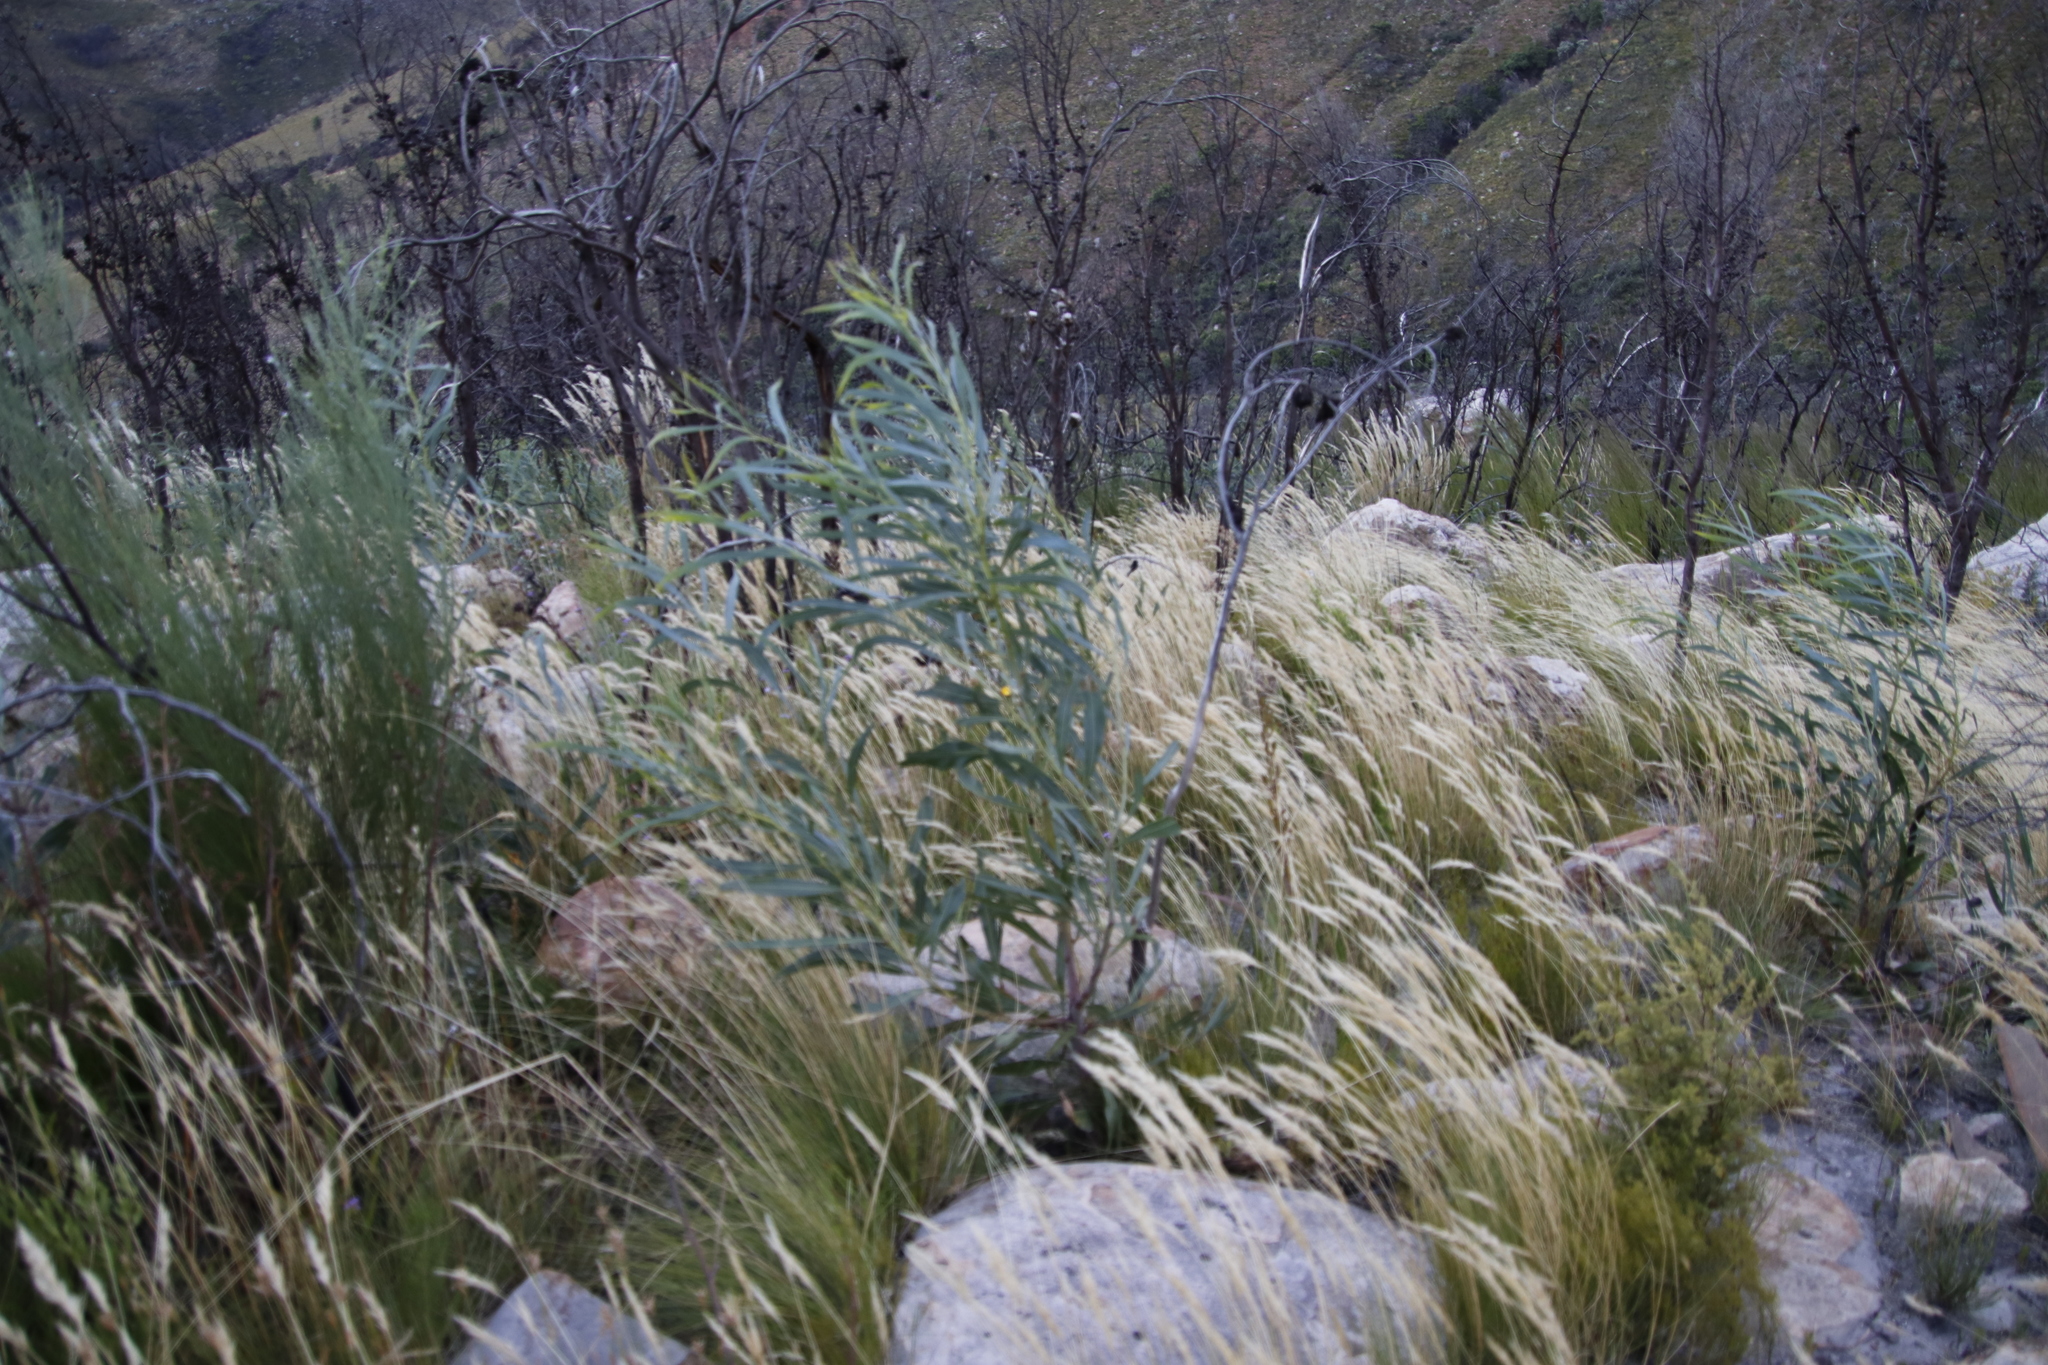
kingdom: Plantae
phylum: Tracheophyta
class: Magnoliopsida
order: Fabales
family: Fabaceae
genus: Acacia
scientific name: Acacia saligna
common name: Orange wattle
